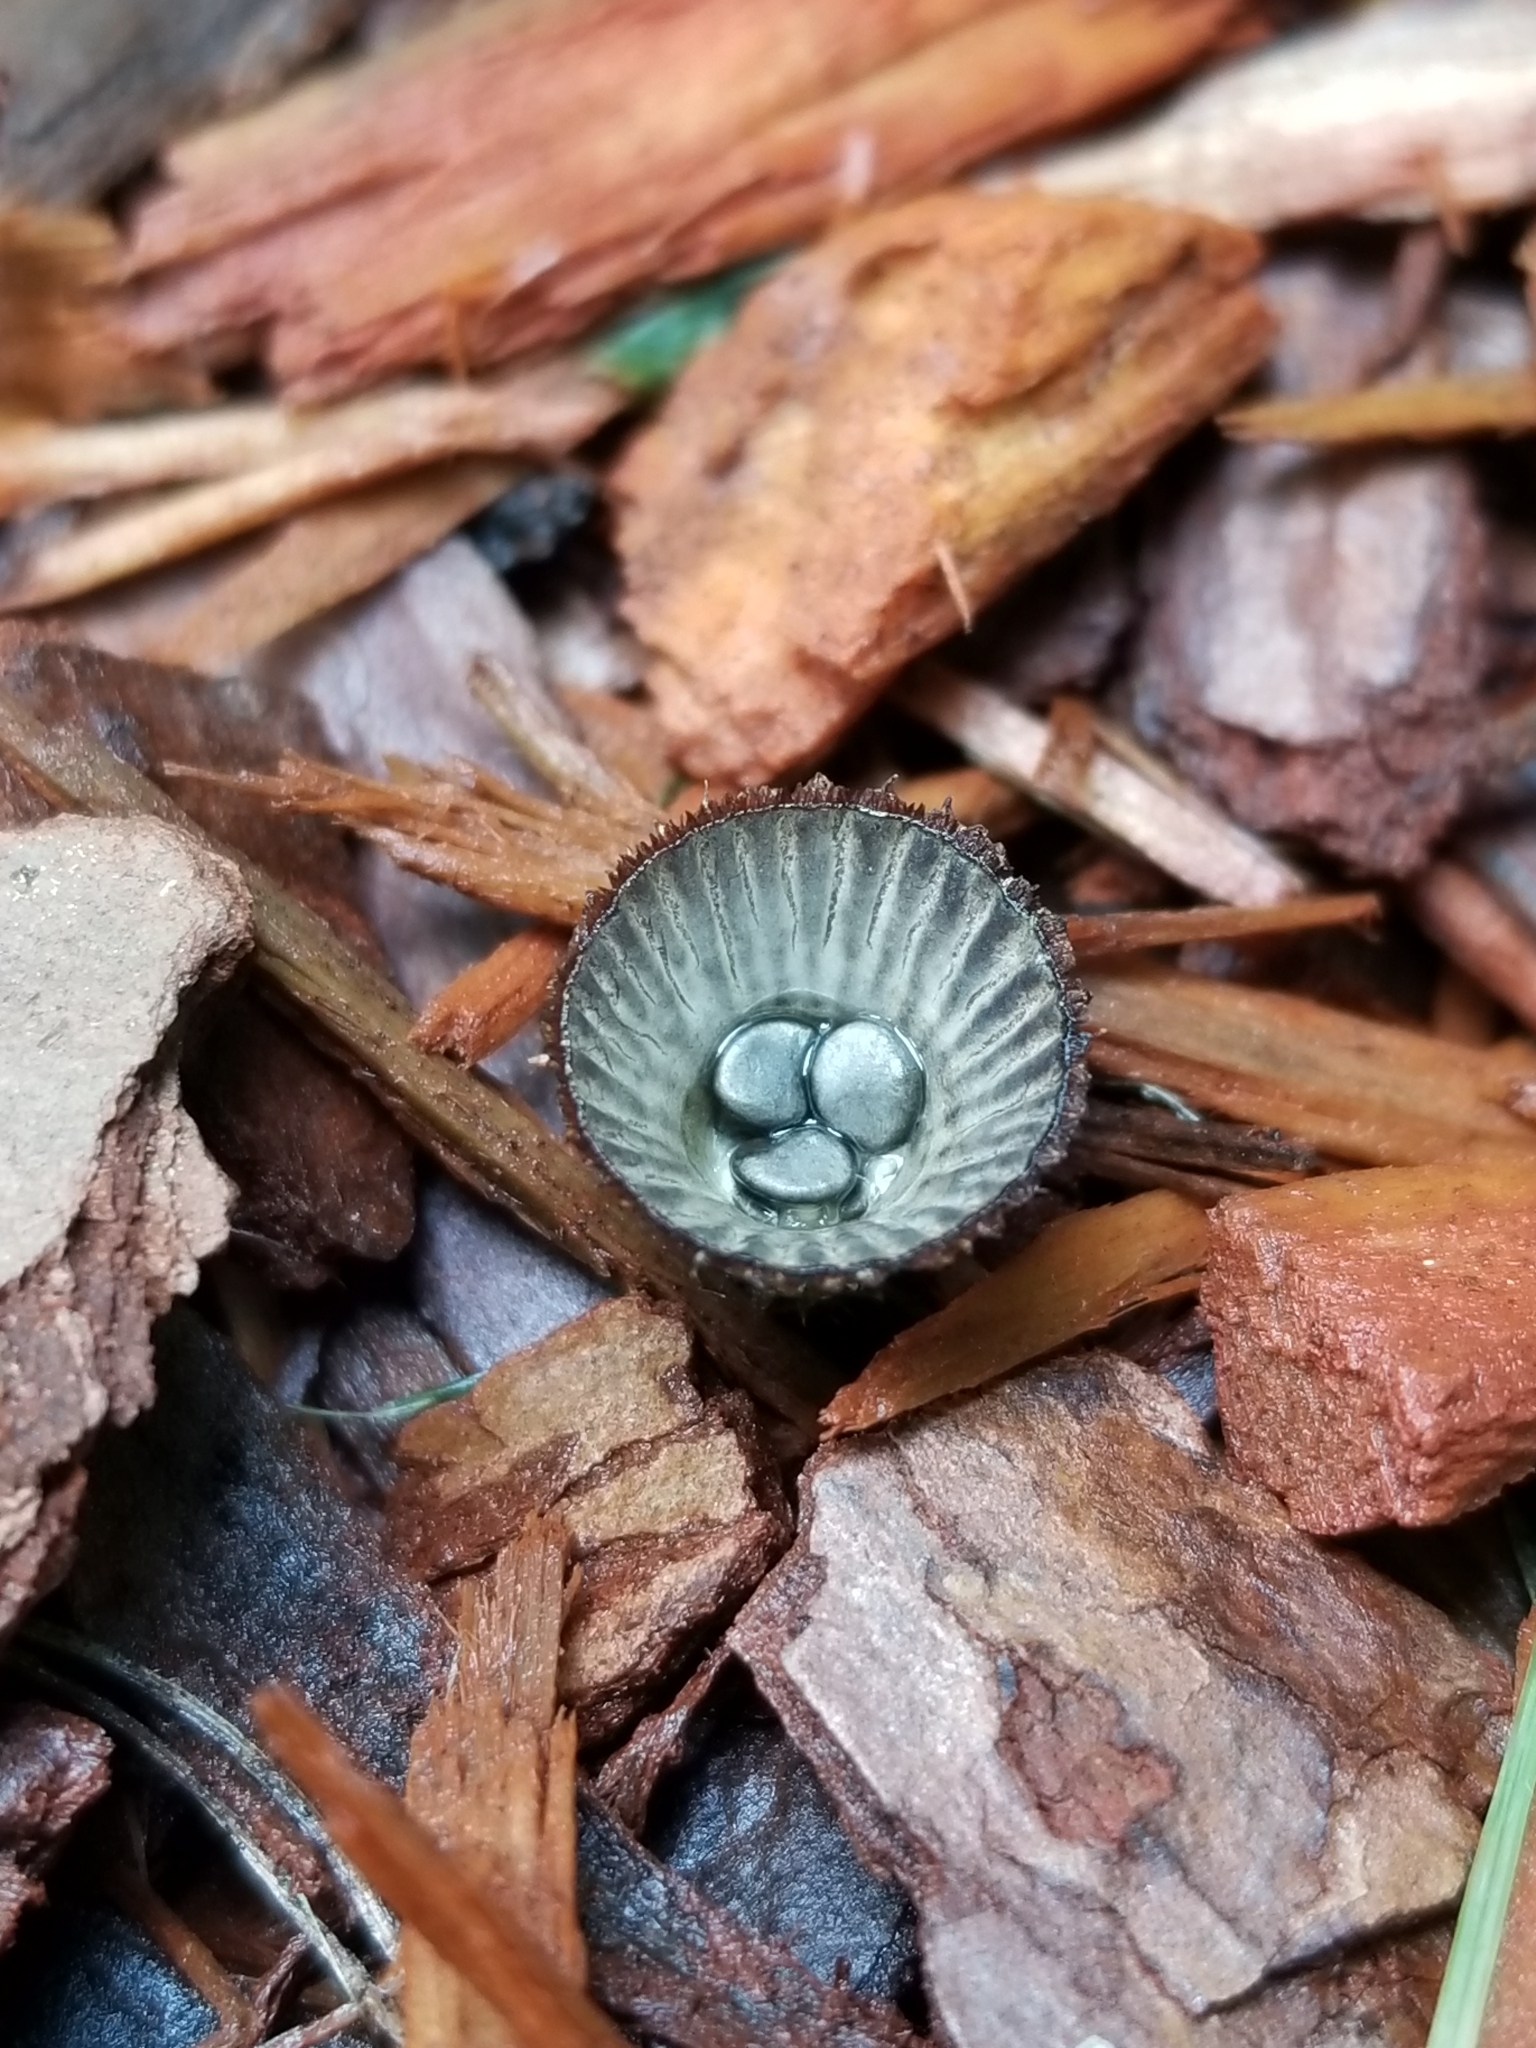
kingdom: Fungi
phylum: Basidiomycota
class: Agaricomycetes
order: Agaricales
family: Agaricaceae
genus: Cyathus
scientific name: Cyathus striatus
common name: Fluted bird's nest
